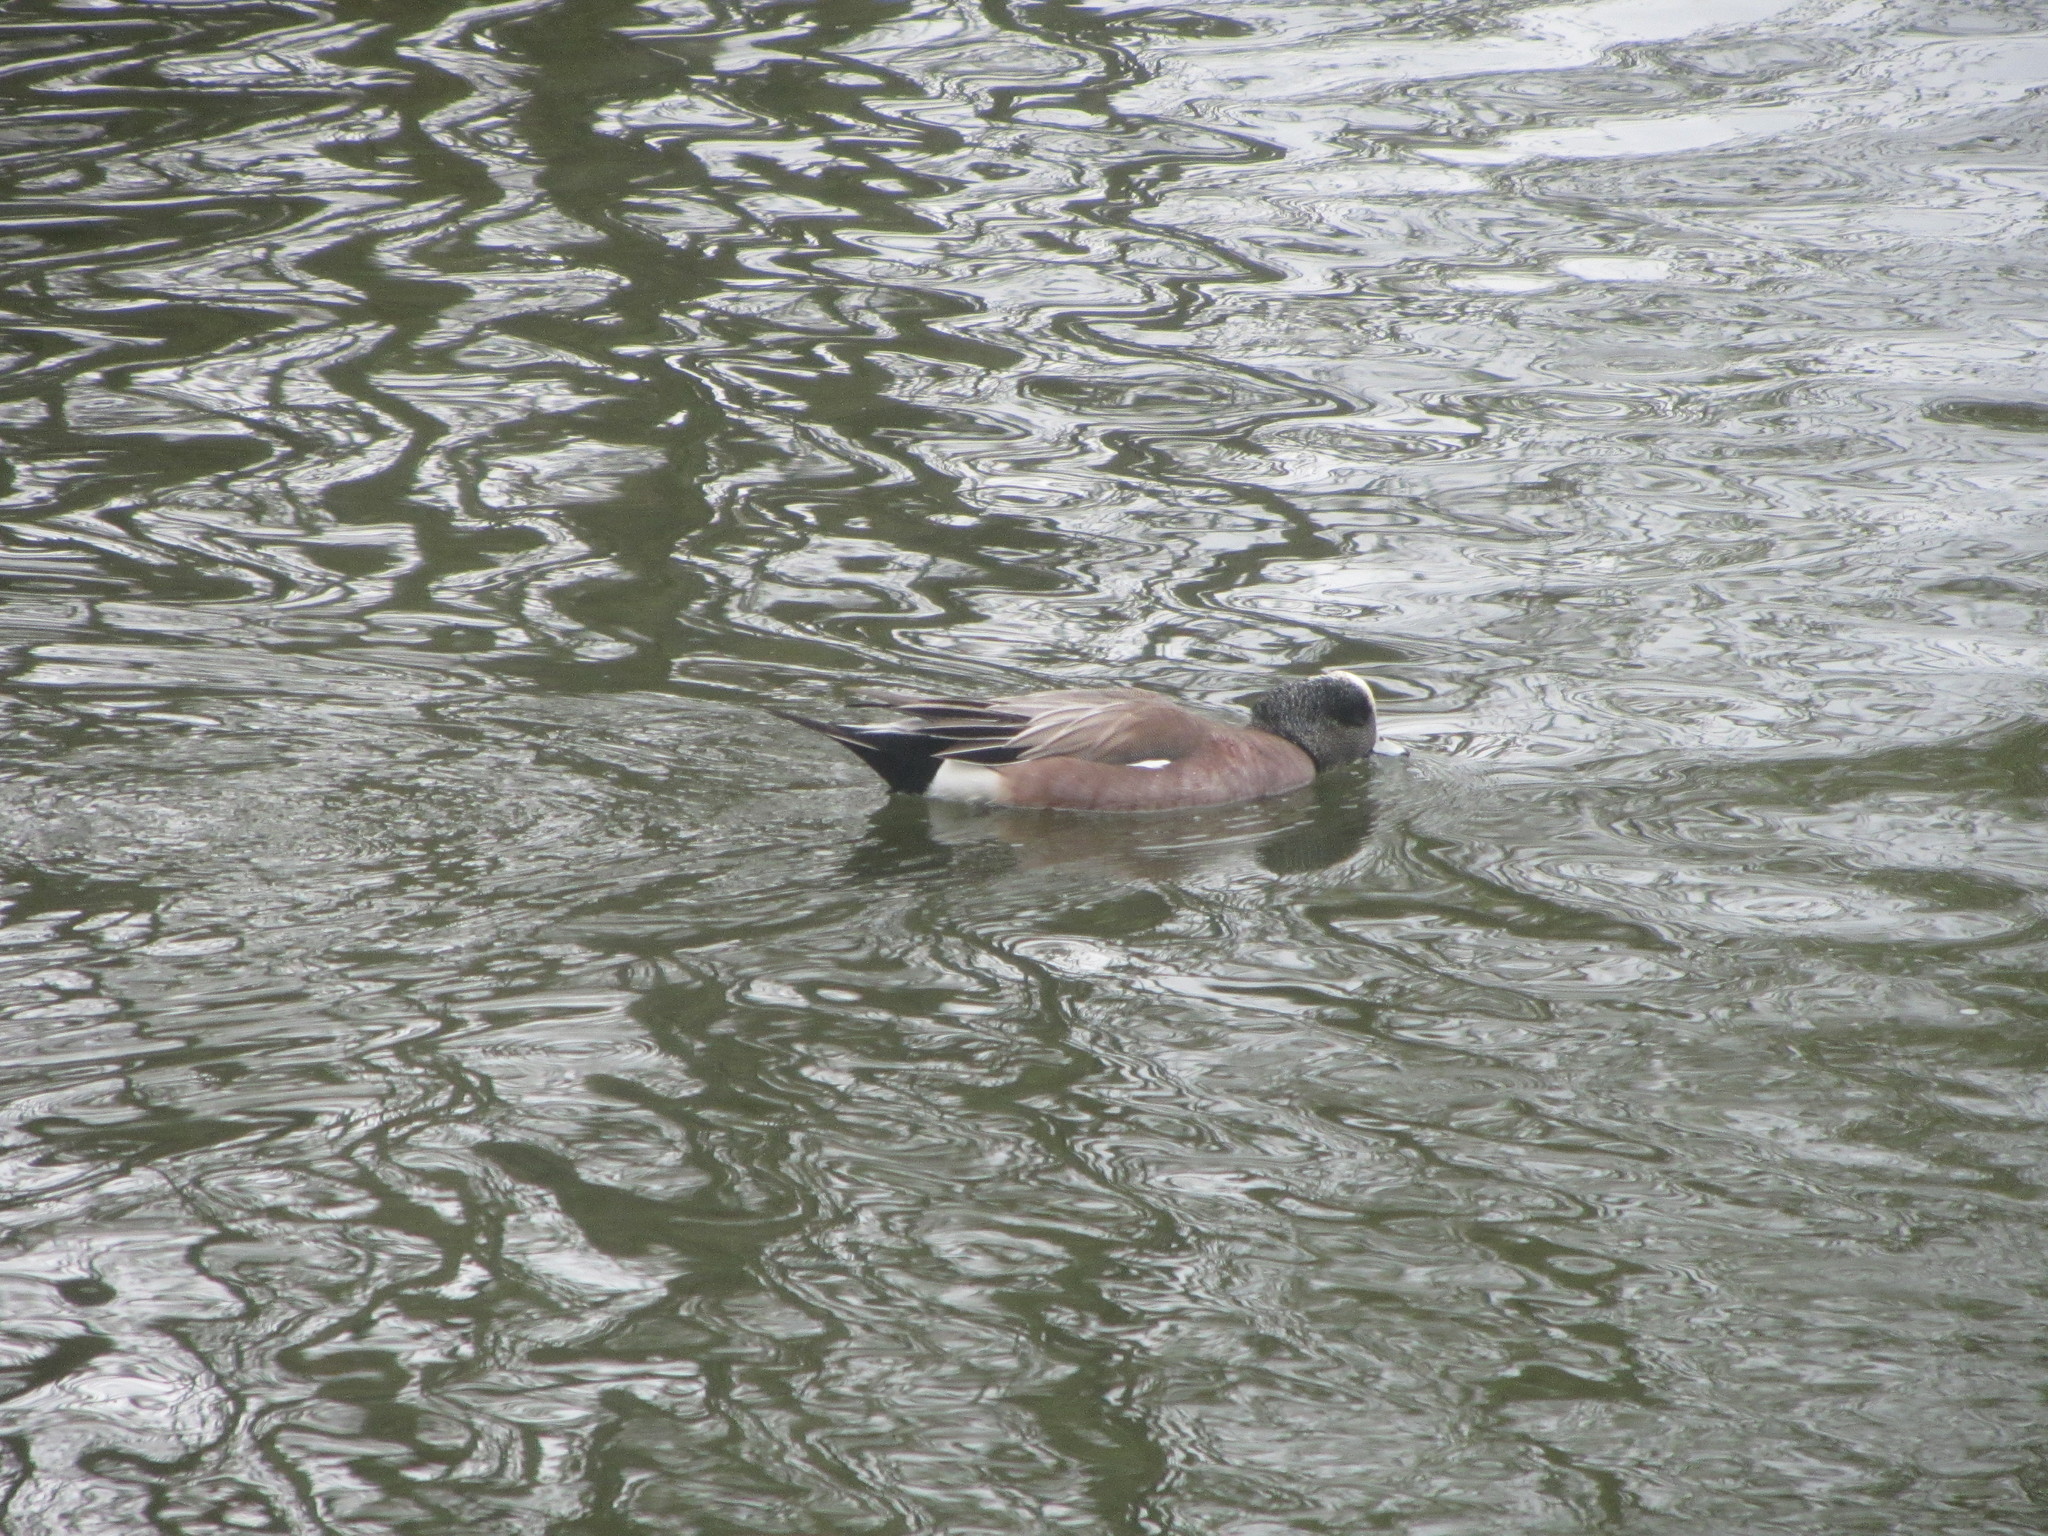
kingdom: Animalia
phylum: Chordata
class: Aves
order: Anseriformes
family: Anatidae
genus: Mareca
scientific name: Mareca americana
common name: American wigeon
